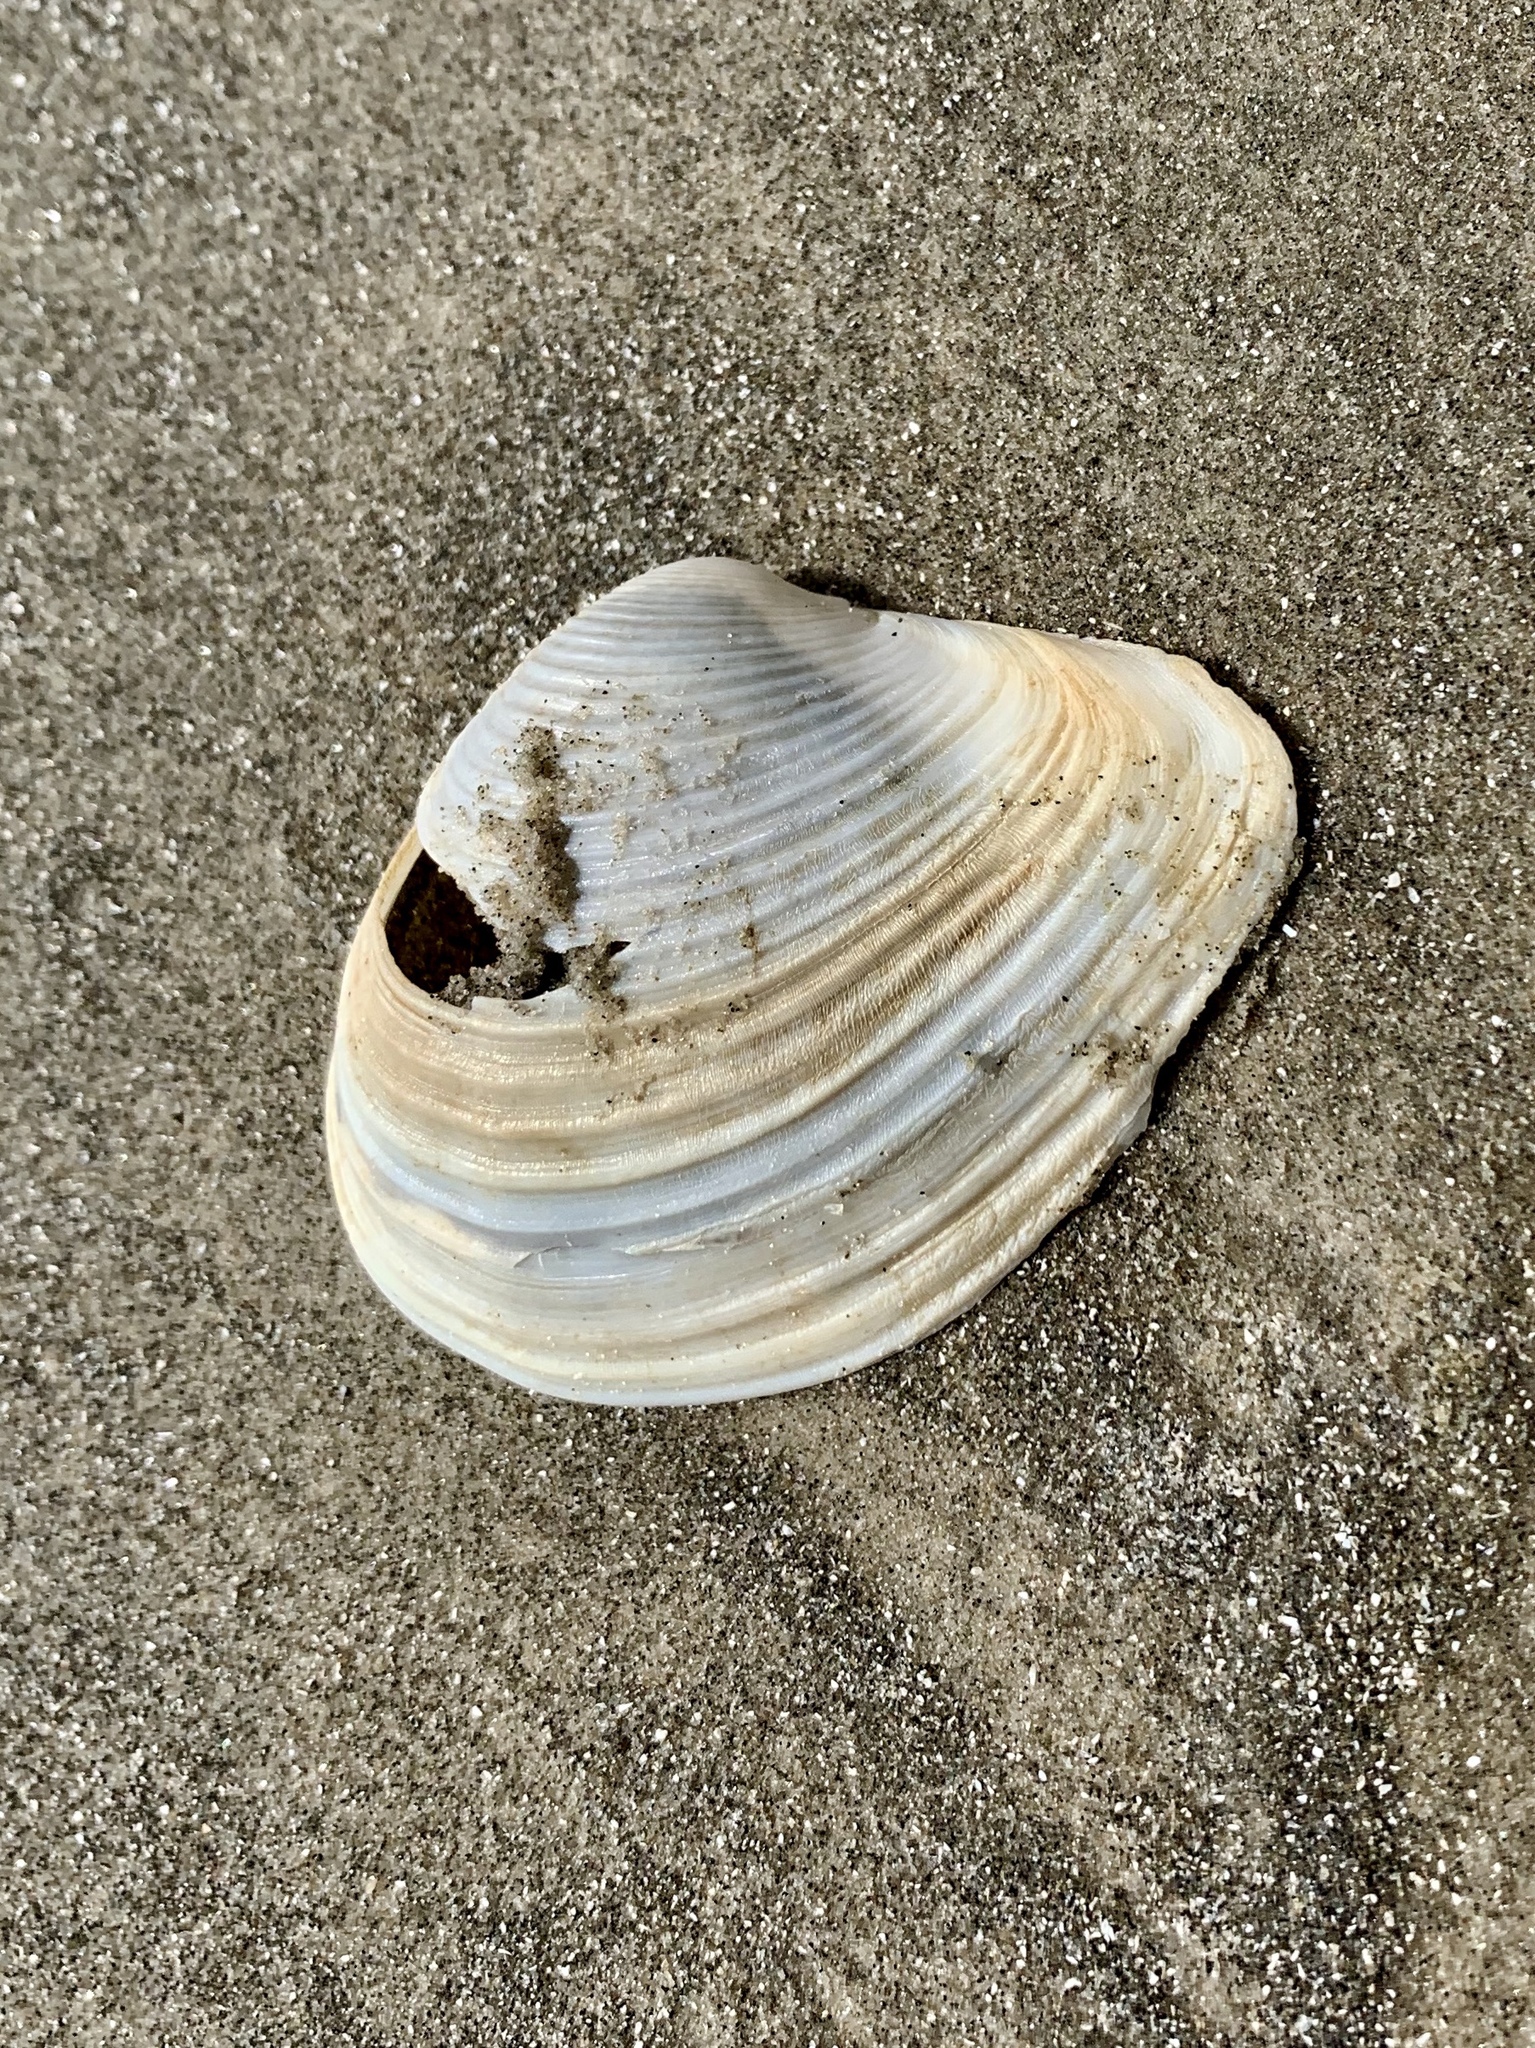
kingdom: Animalia
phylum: Mollusca
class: Bivalvia
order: Venerida
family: Anatinellidae
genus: Raeta
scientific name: Raeta plicatella
